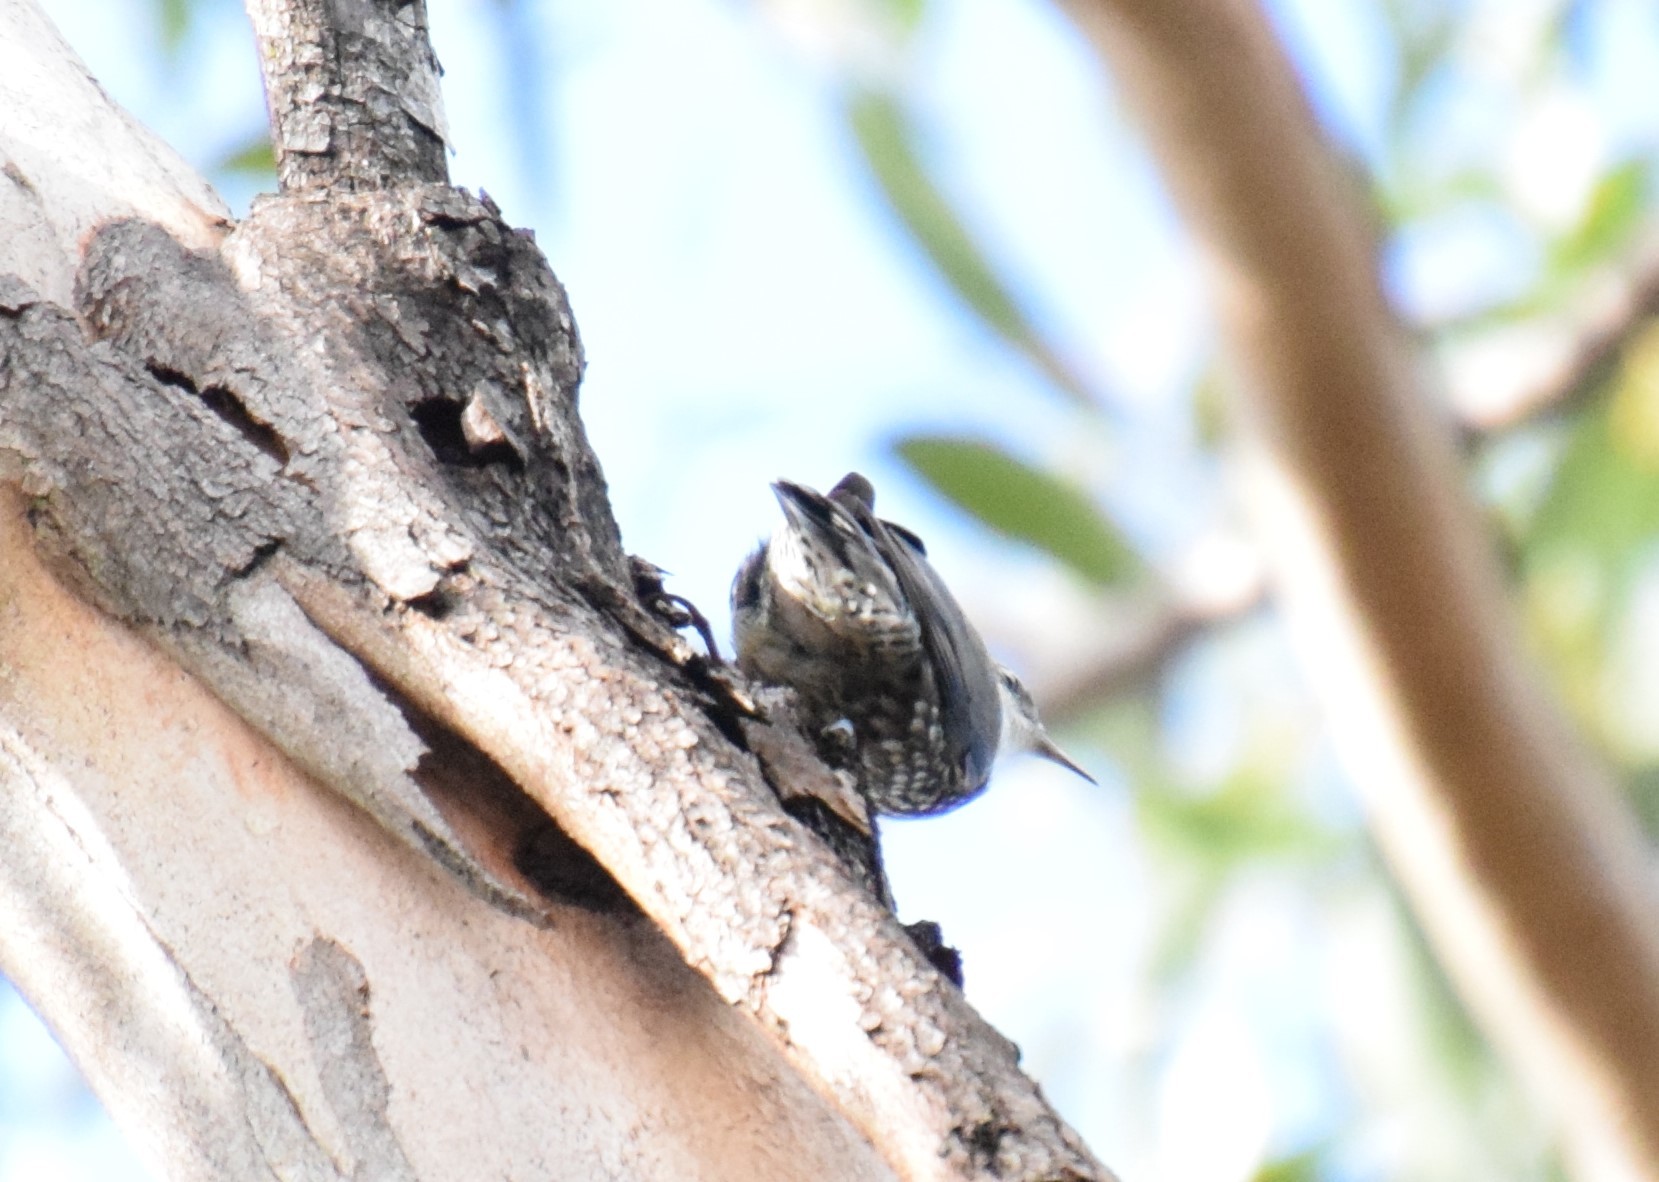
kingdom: Animalia
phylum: Chordata
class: Aves
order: Passeriformes
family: Climacteridae
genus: Cormobates
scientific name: Cormobates leucophaea
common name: White-throated treecreeper
